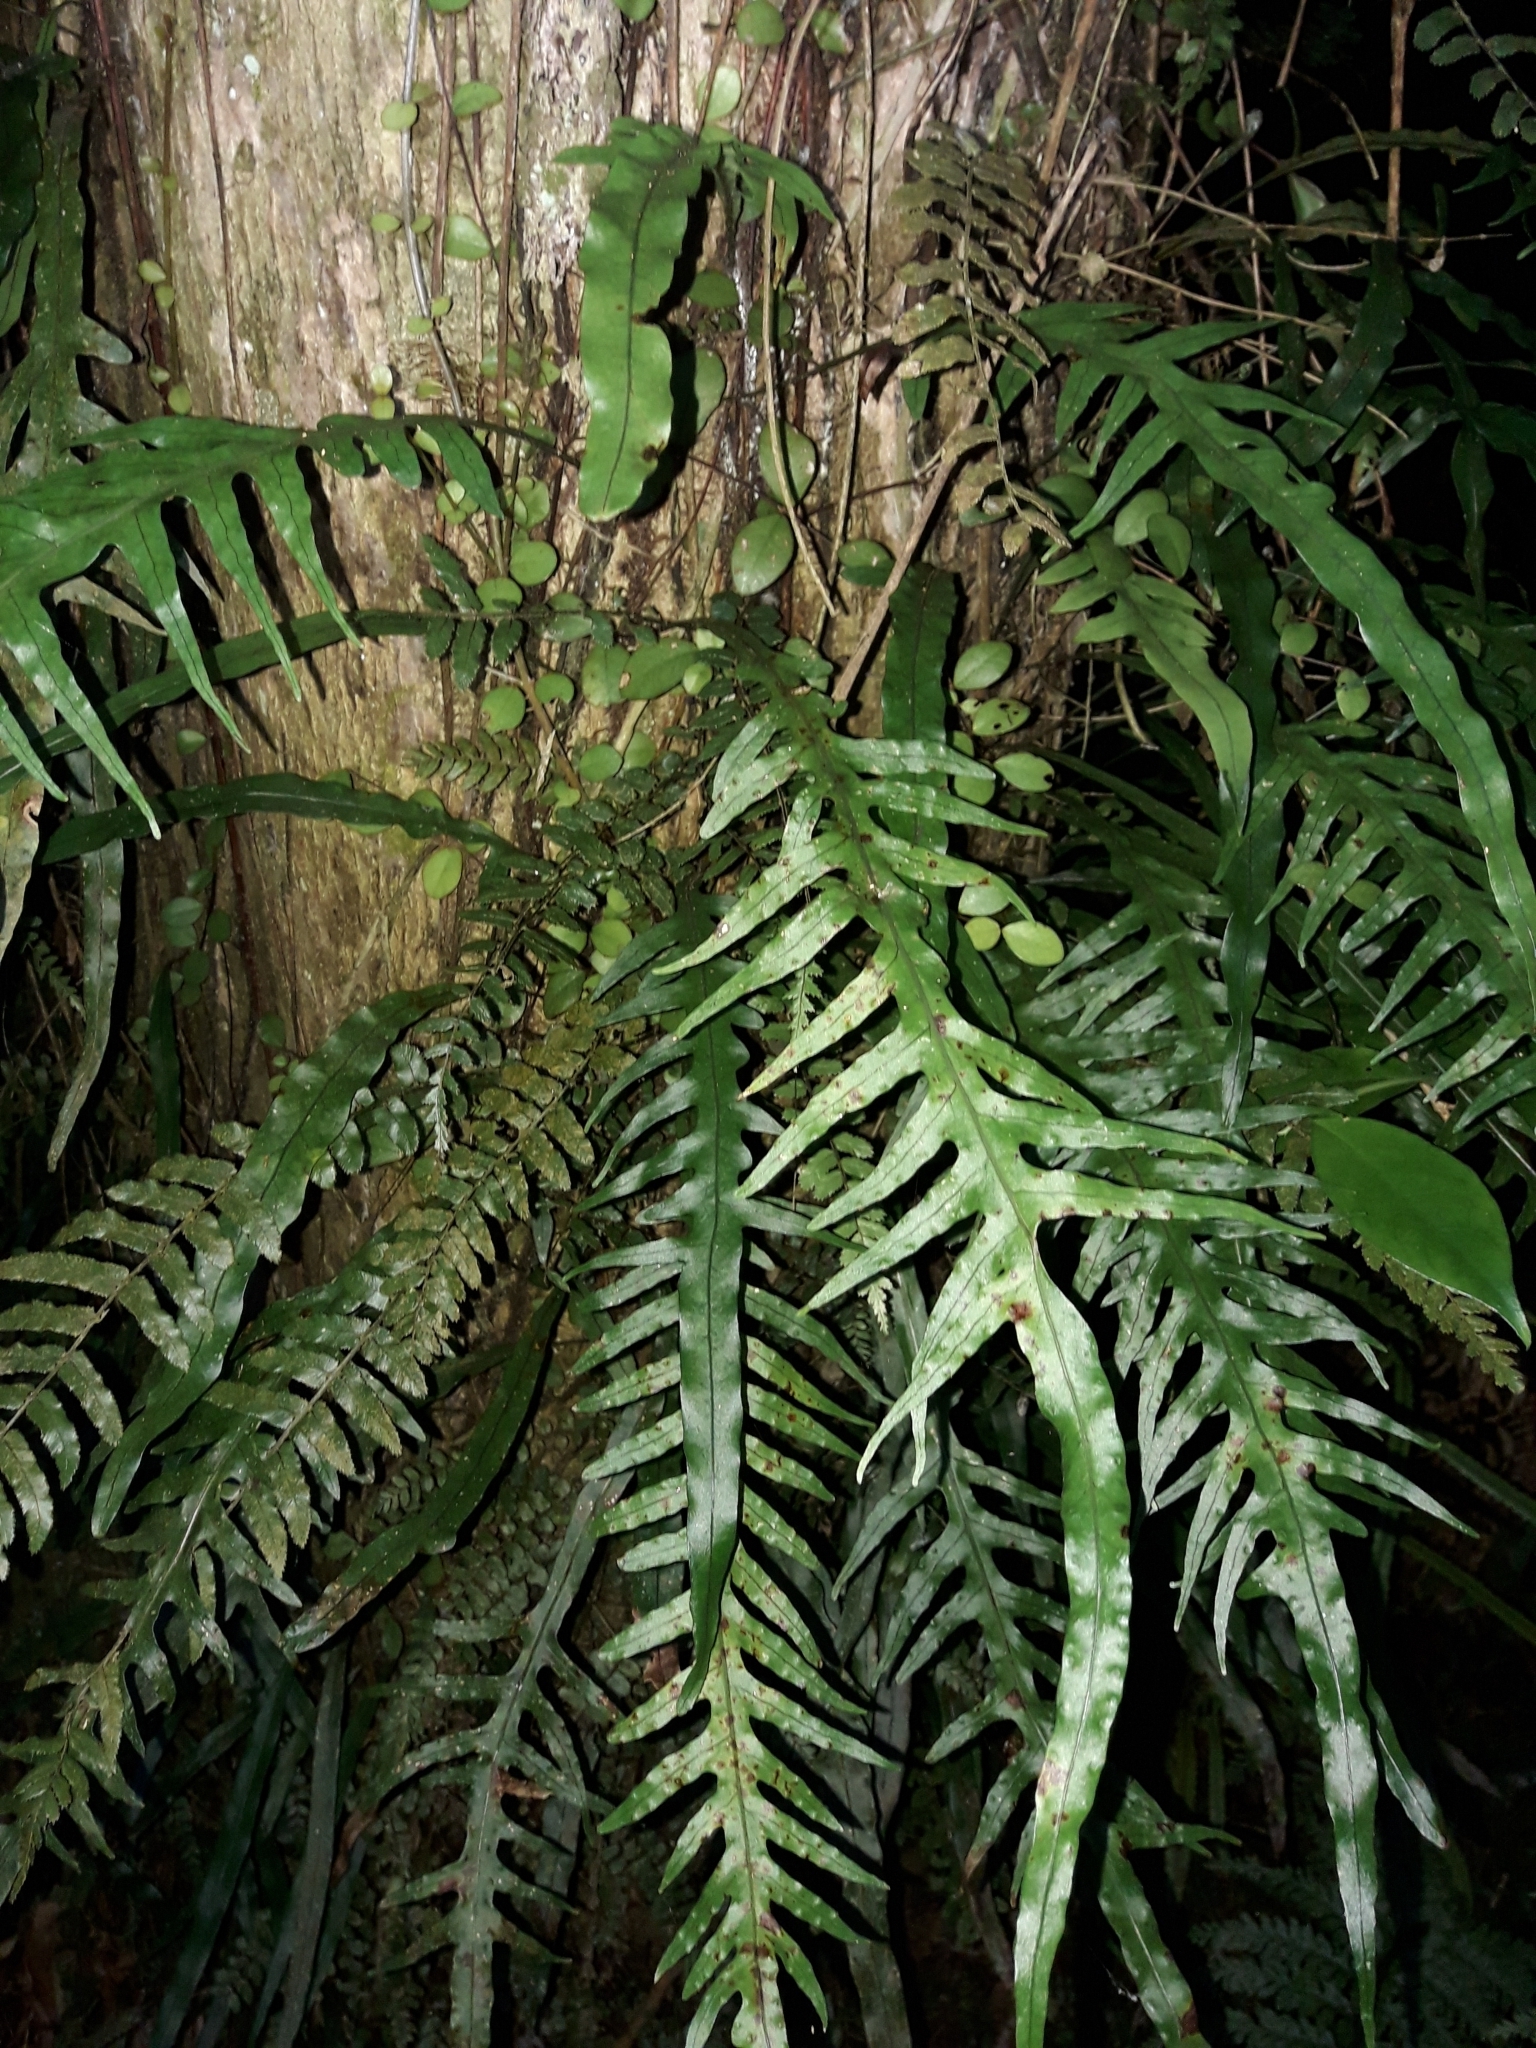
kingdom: Plantae
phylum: Tracheophyta
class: Polypodiopsida
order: Polypodiales
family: Polypodiaceae
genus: Lecanopteris
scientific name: Lecanopteris scandens
